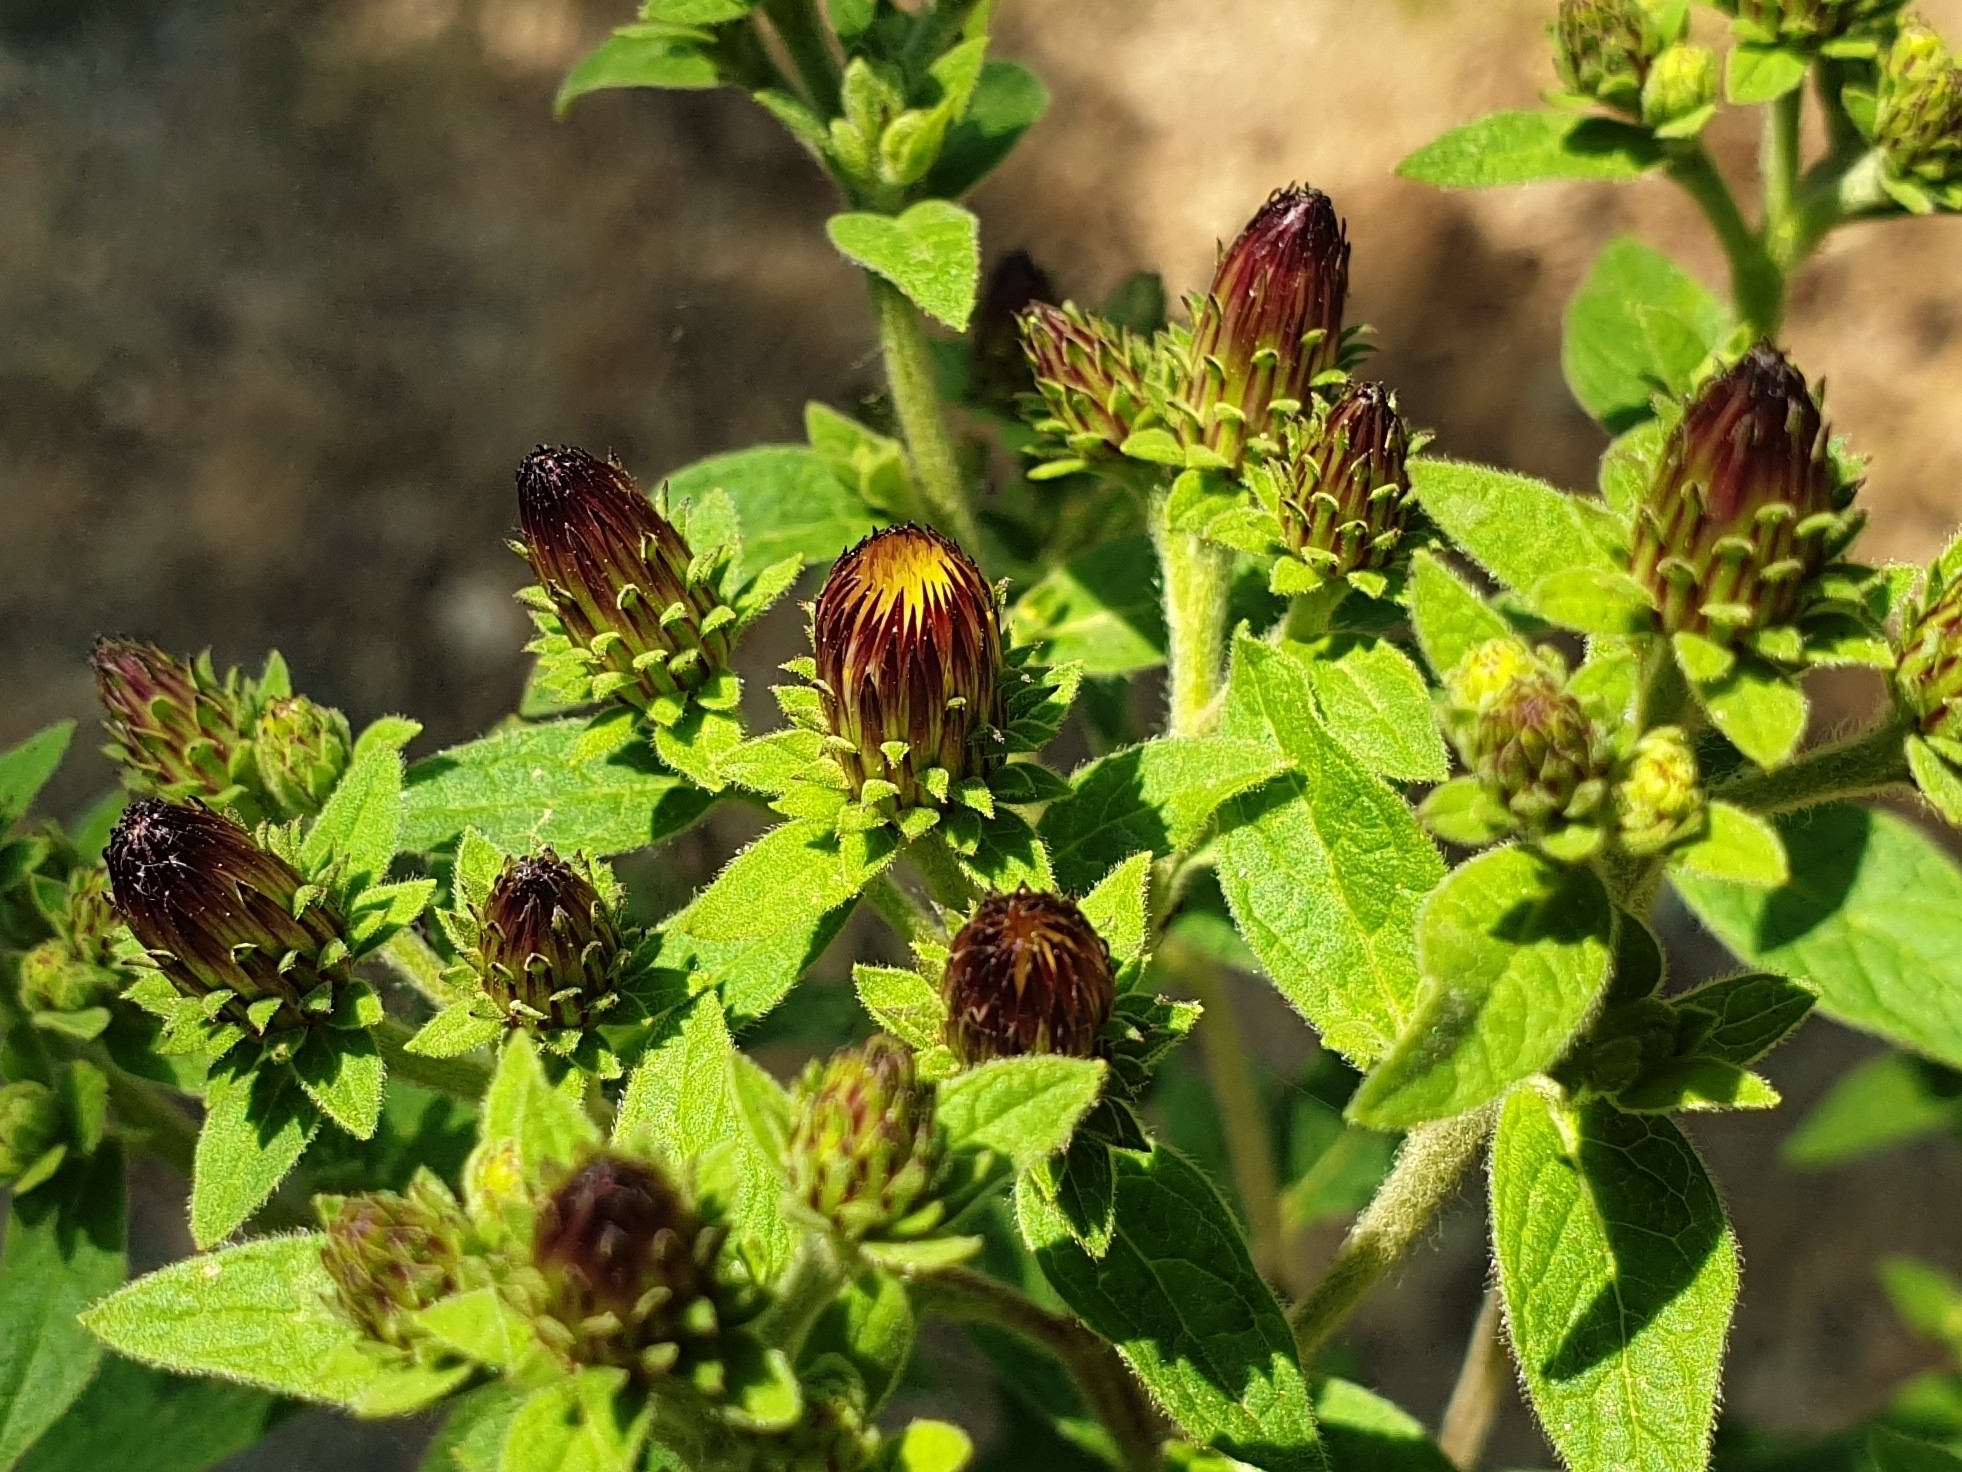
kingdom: Plantae
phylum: Tracheophyta
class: Magnoliopsida
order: Asterales
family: Asteraceae
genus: Pentanema
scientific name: Pentanema squarrosum
